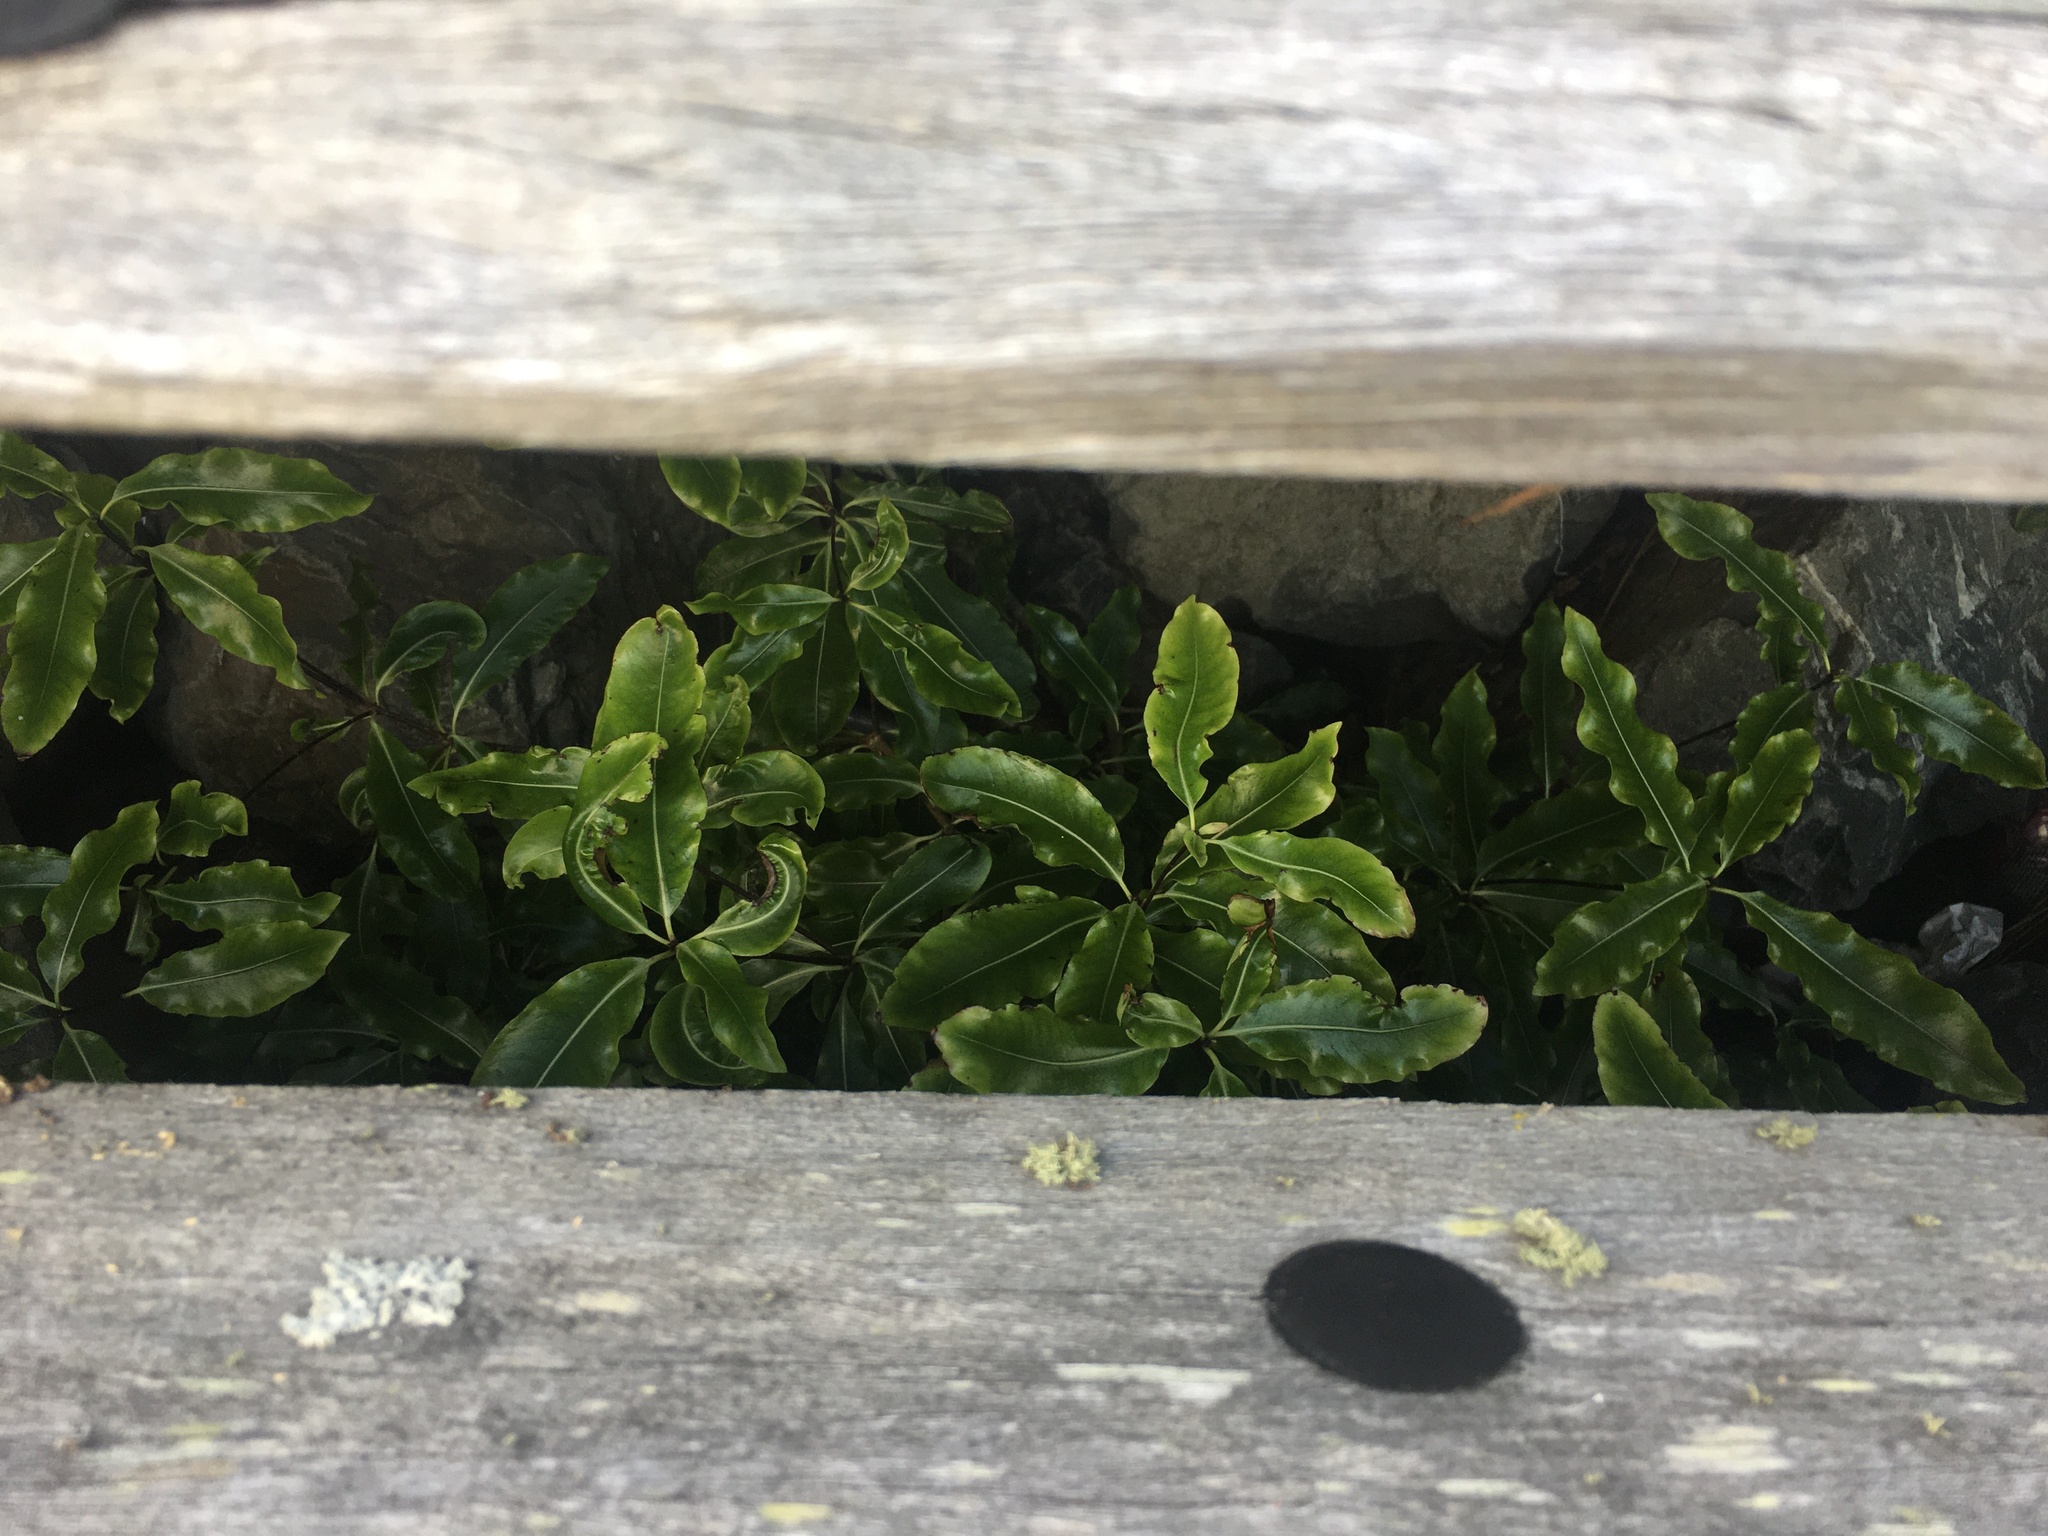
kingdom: Plantae
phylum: Tracheophyta
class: Magnoliopsida
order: Apiales
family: Pittosporaceae
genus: Pittosporum
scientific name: Pittosporum eugenioides
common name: Lemonwood
